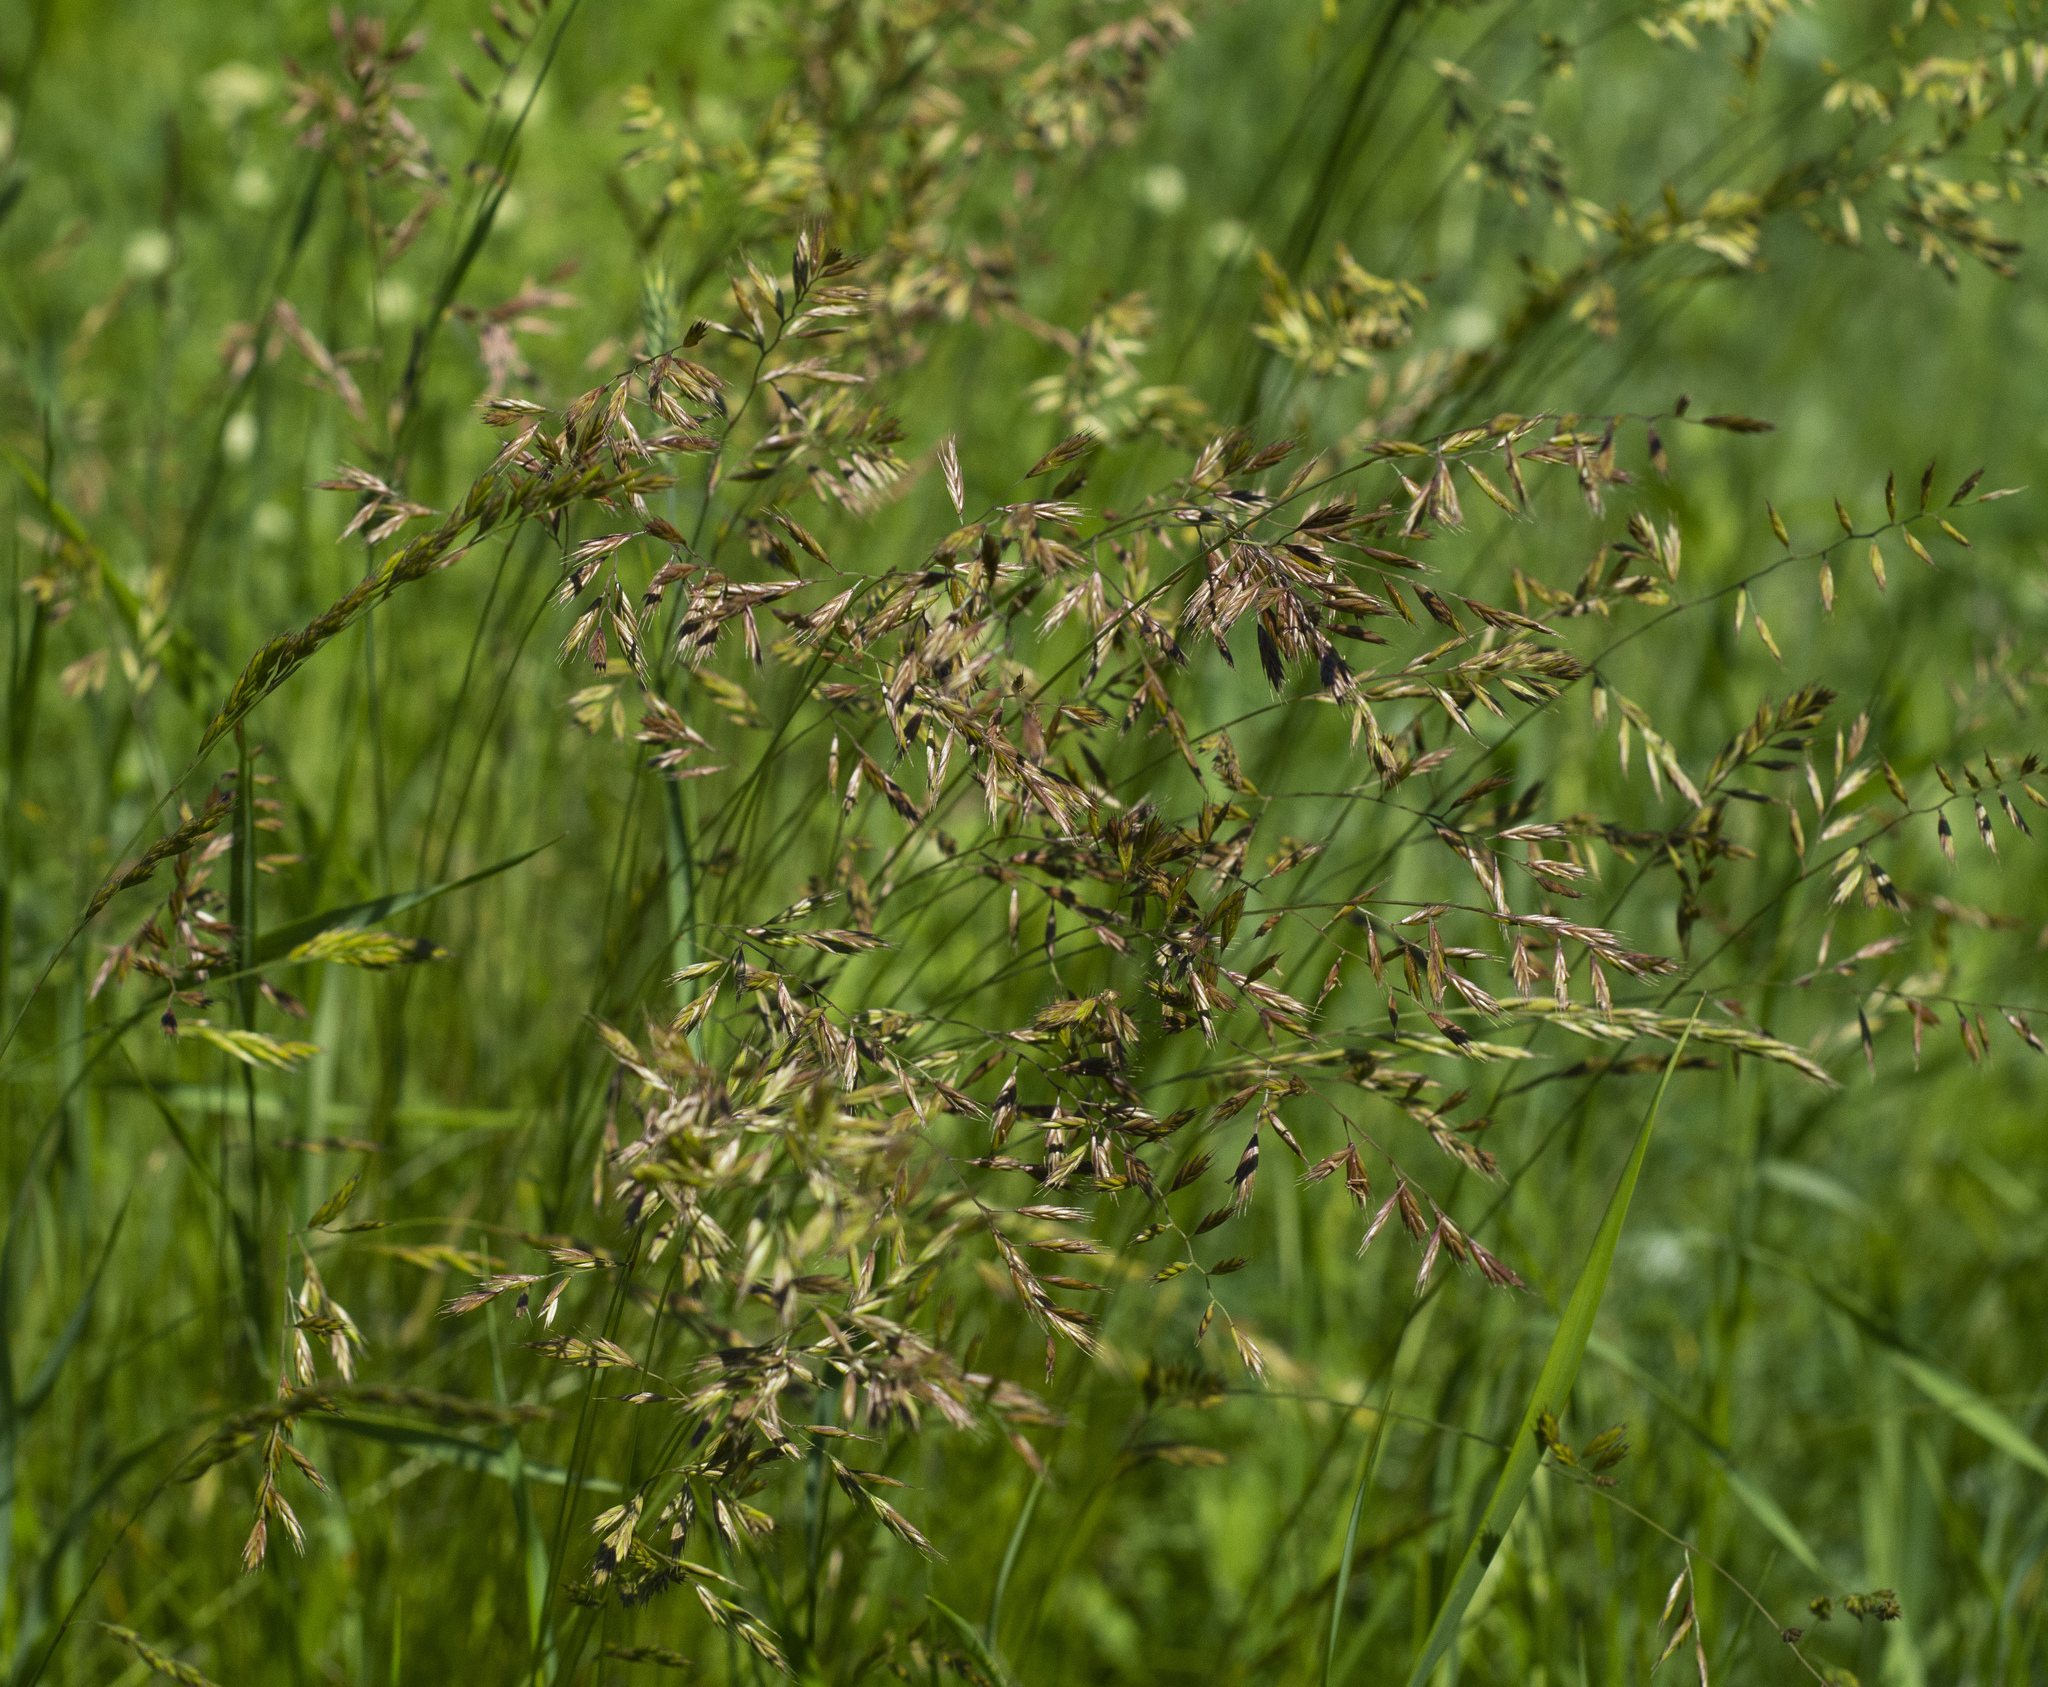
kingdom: Plantae
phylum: Tracheophyta
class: Liliopsida
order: Poales
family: Poaceae
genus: Festuca
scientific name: Festuca
